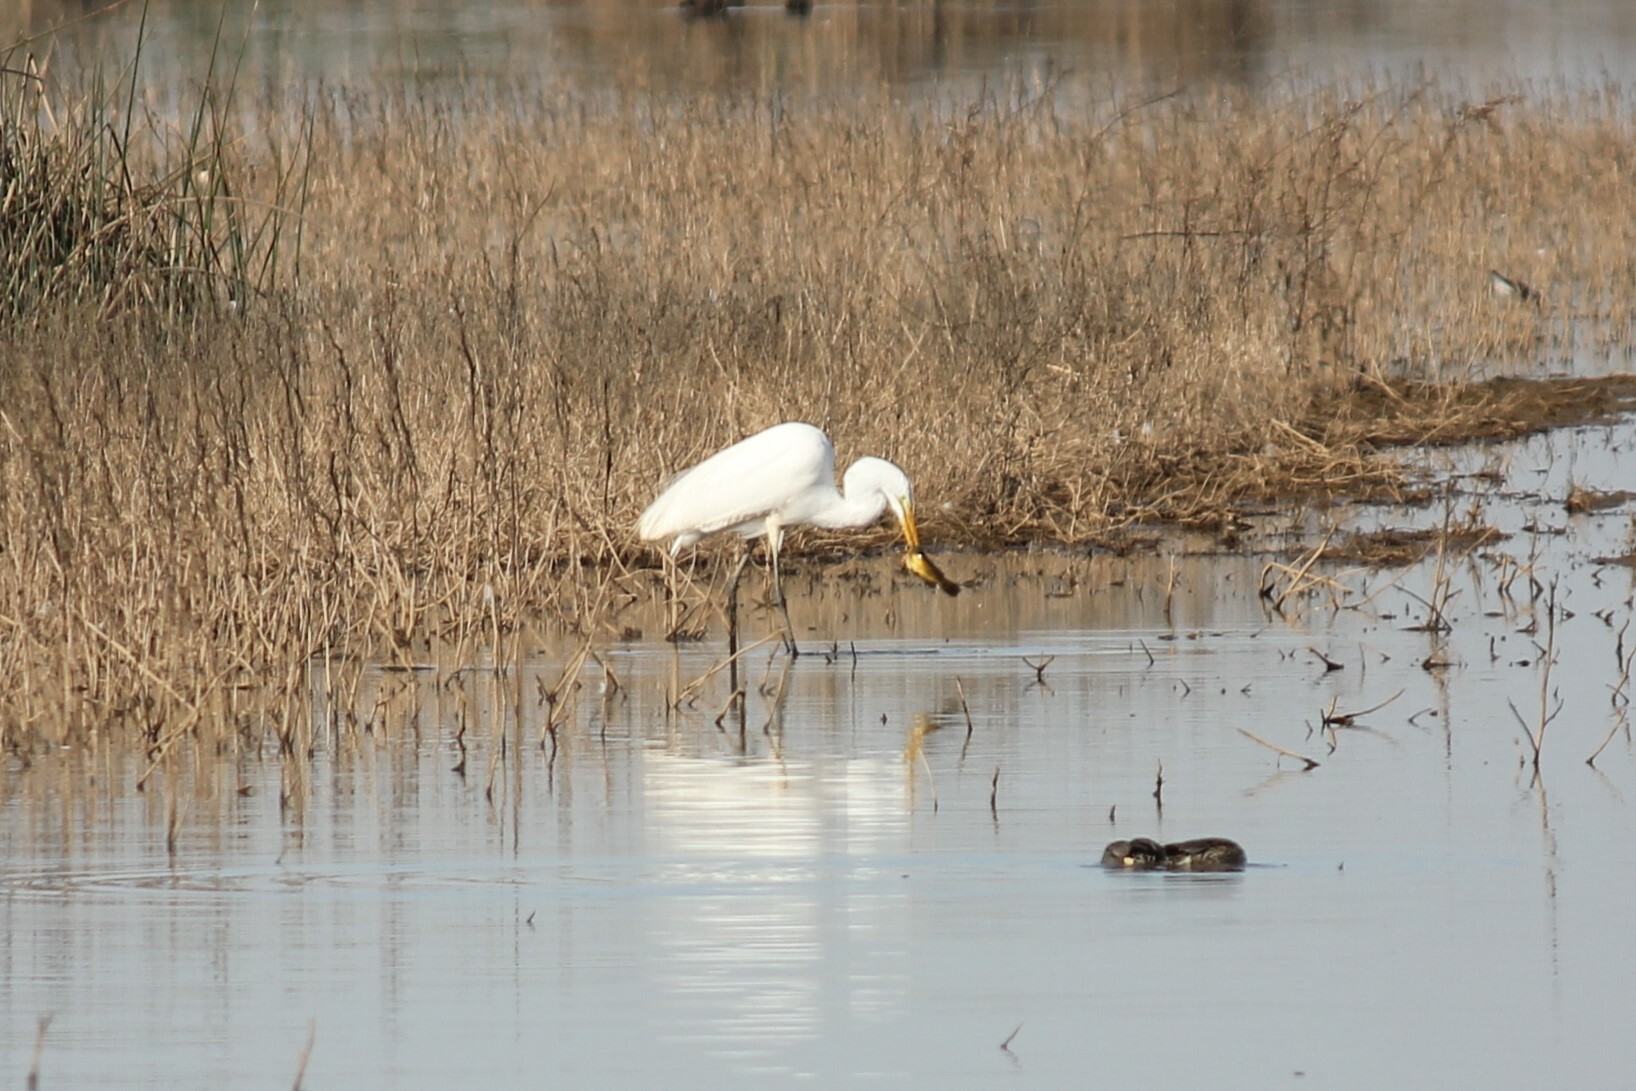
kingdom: Animalia
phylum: Chordata
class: Aves
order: Pelecaniformes
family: Ardeidae
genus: Ardea
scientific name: Ardea alba
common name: Great egret
